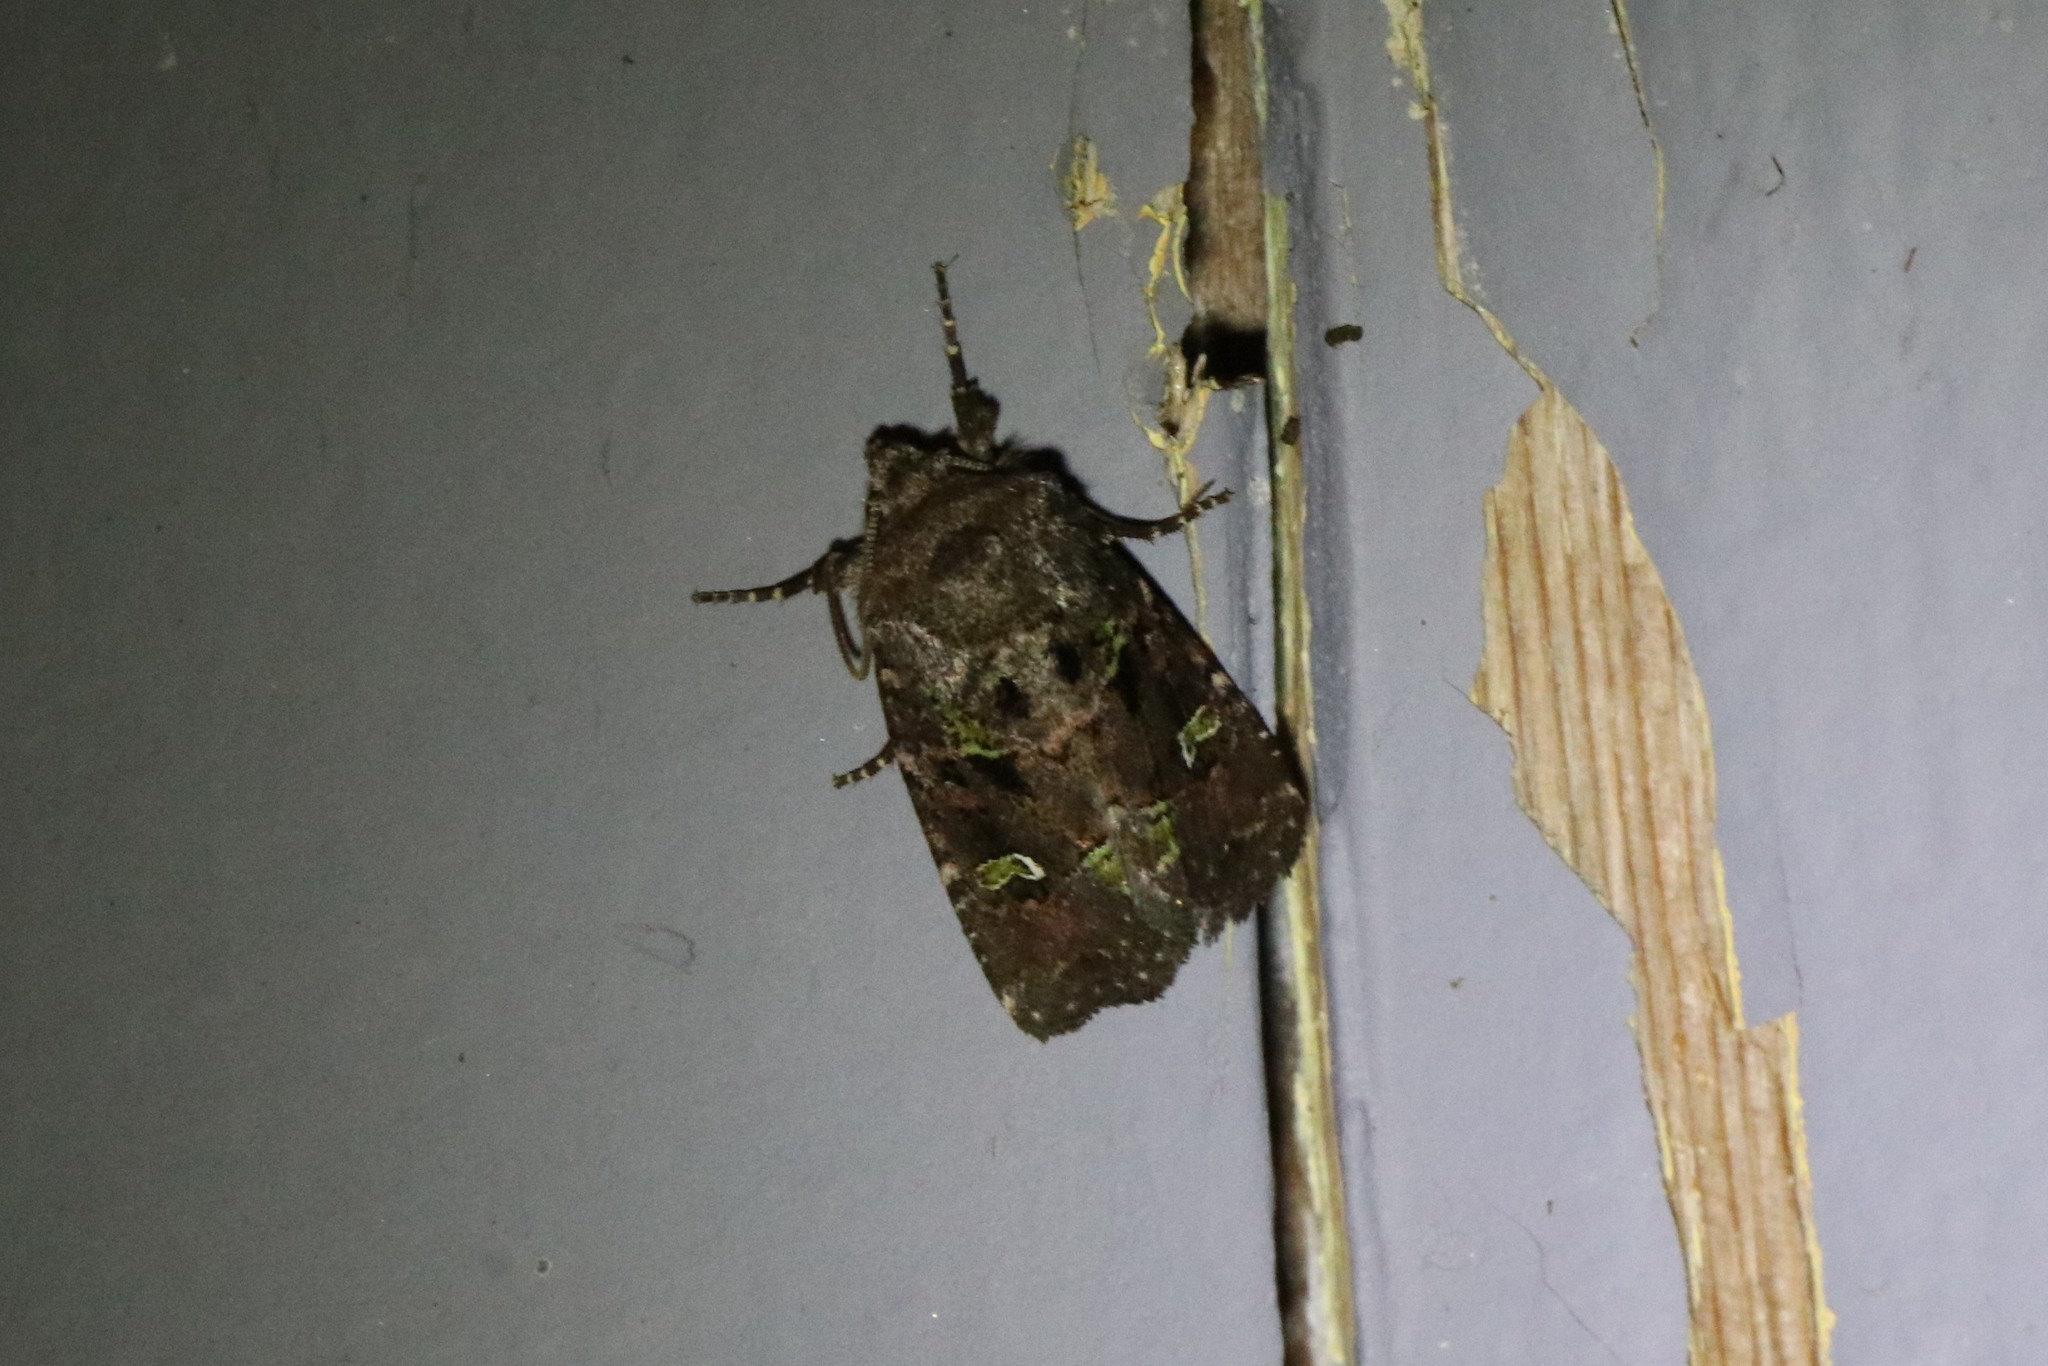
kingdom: Animalia
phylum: Arthropoda
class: Insecta
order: Lepidoptera
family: Noctuidae
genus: Lacinipolia
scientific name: Lacinipolia renigera
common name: Kidney-spotted minor
